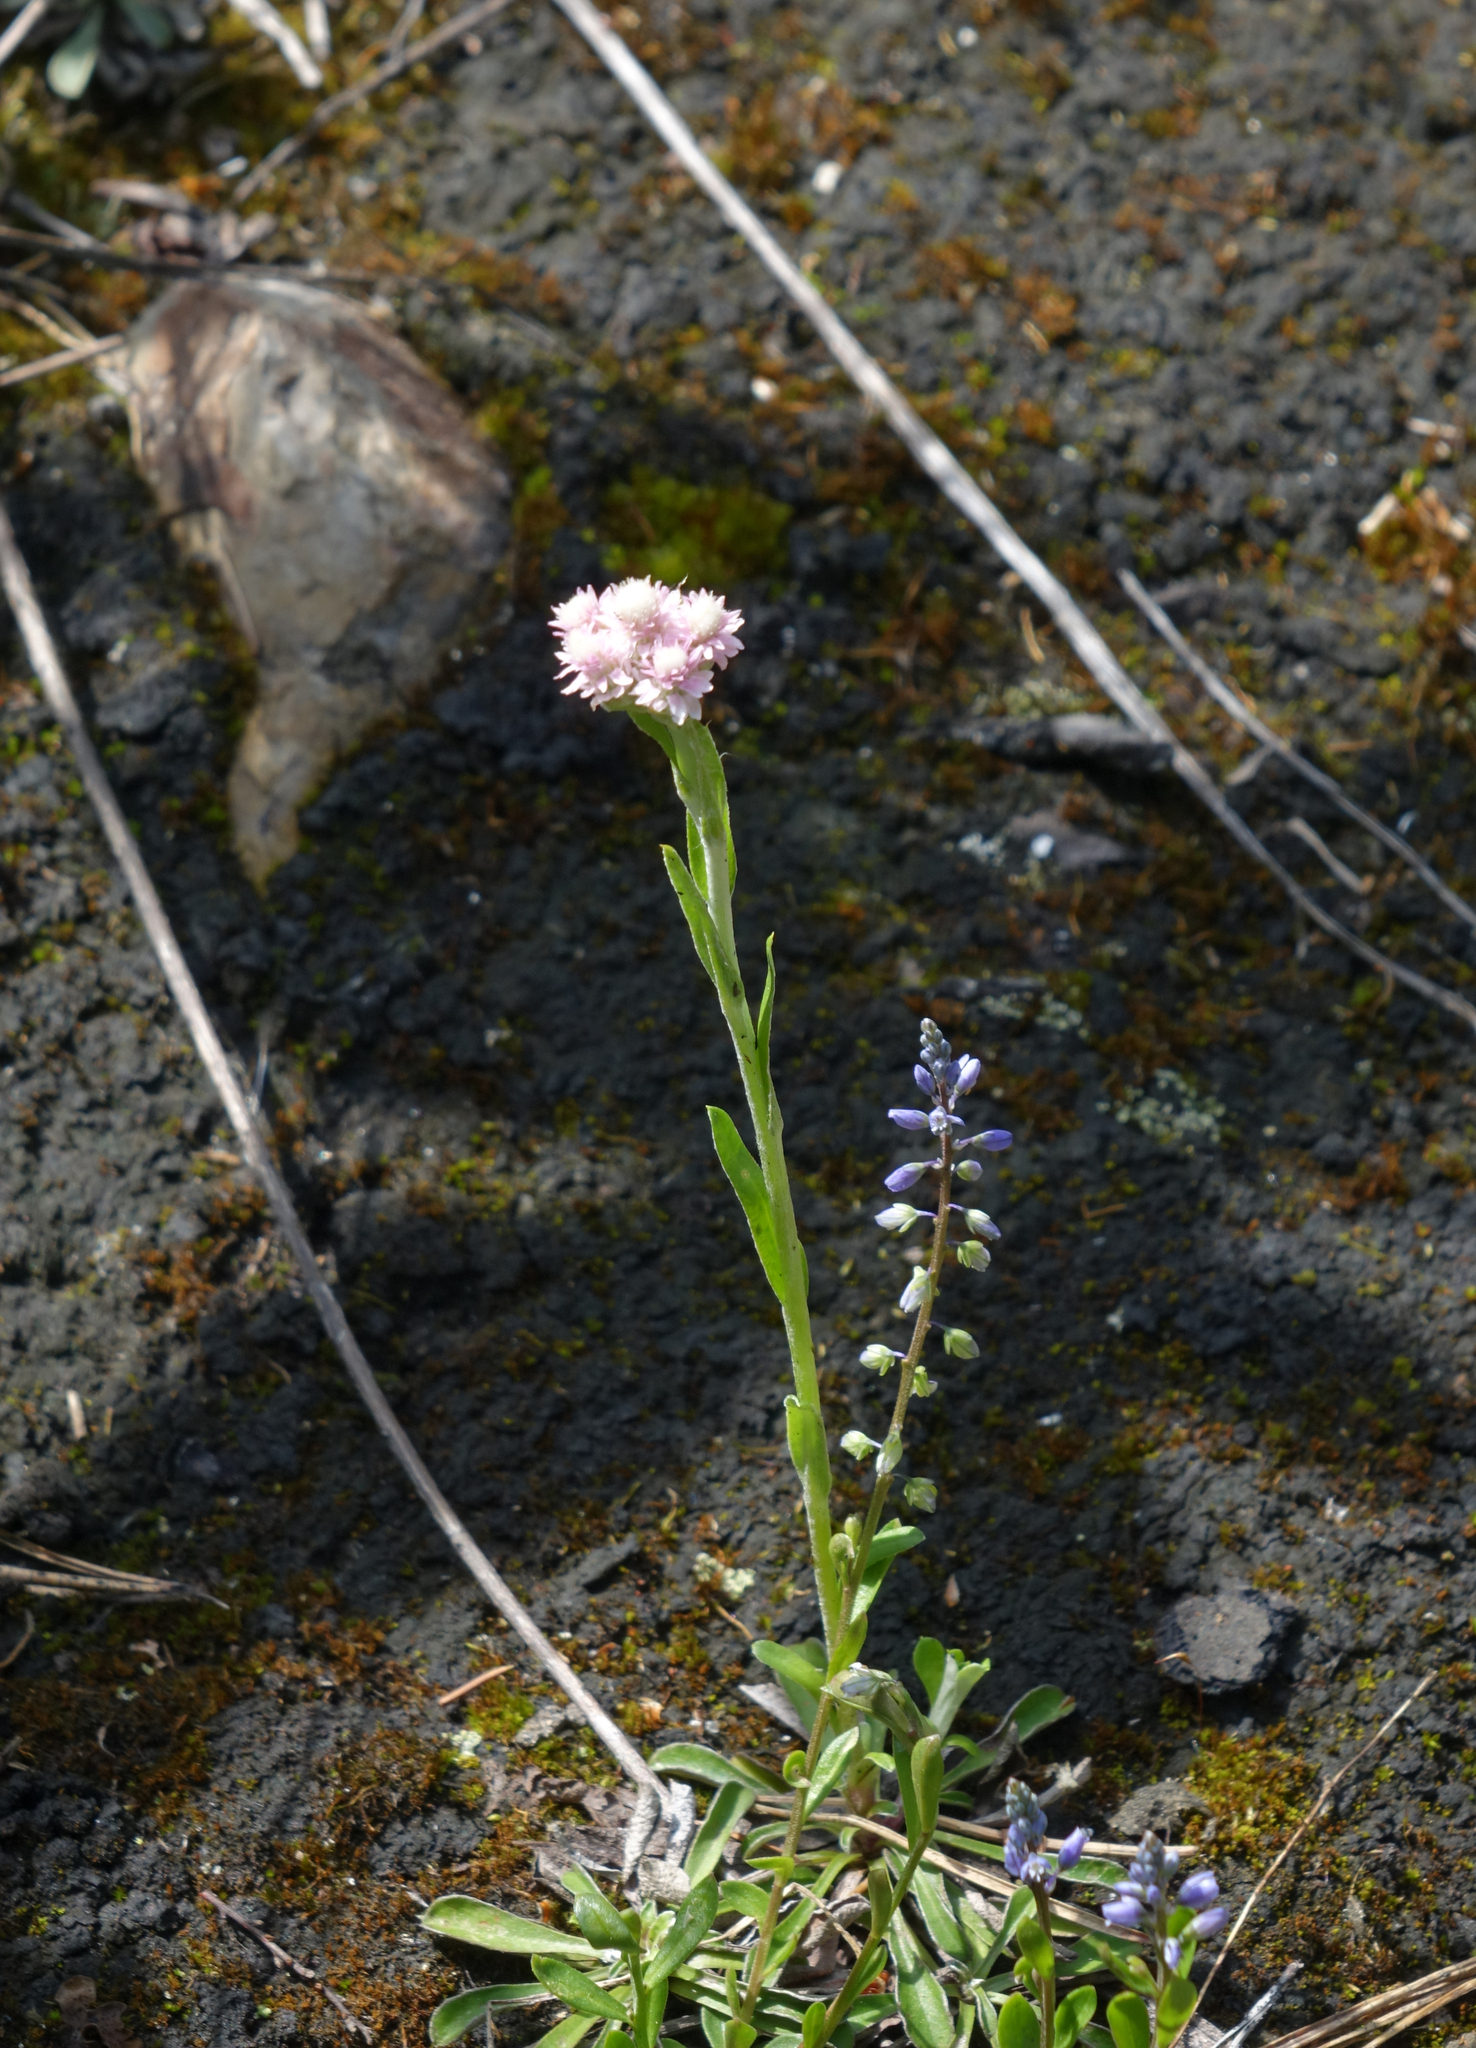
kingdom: Plantae
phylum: Tracheophyta
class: Magnoliopsida
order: Fabales
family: Polygalaceae
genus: Polygala
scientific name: Polygala amarella
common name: Dwarf milkwort
